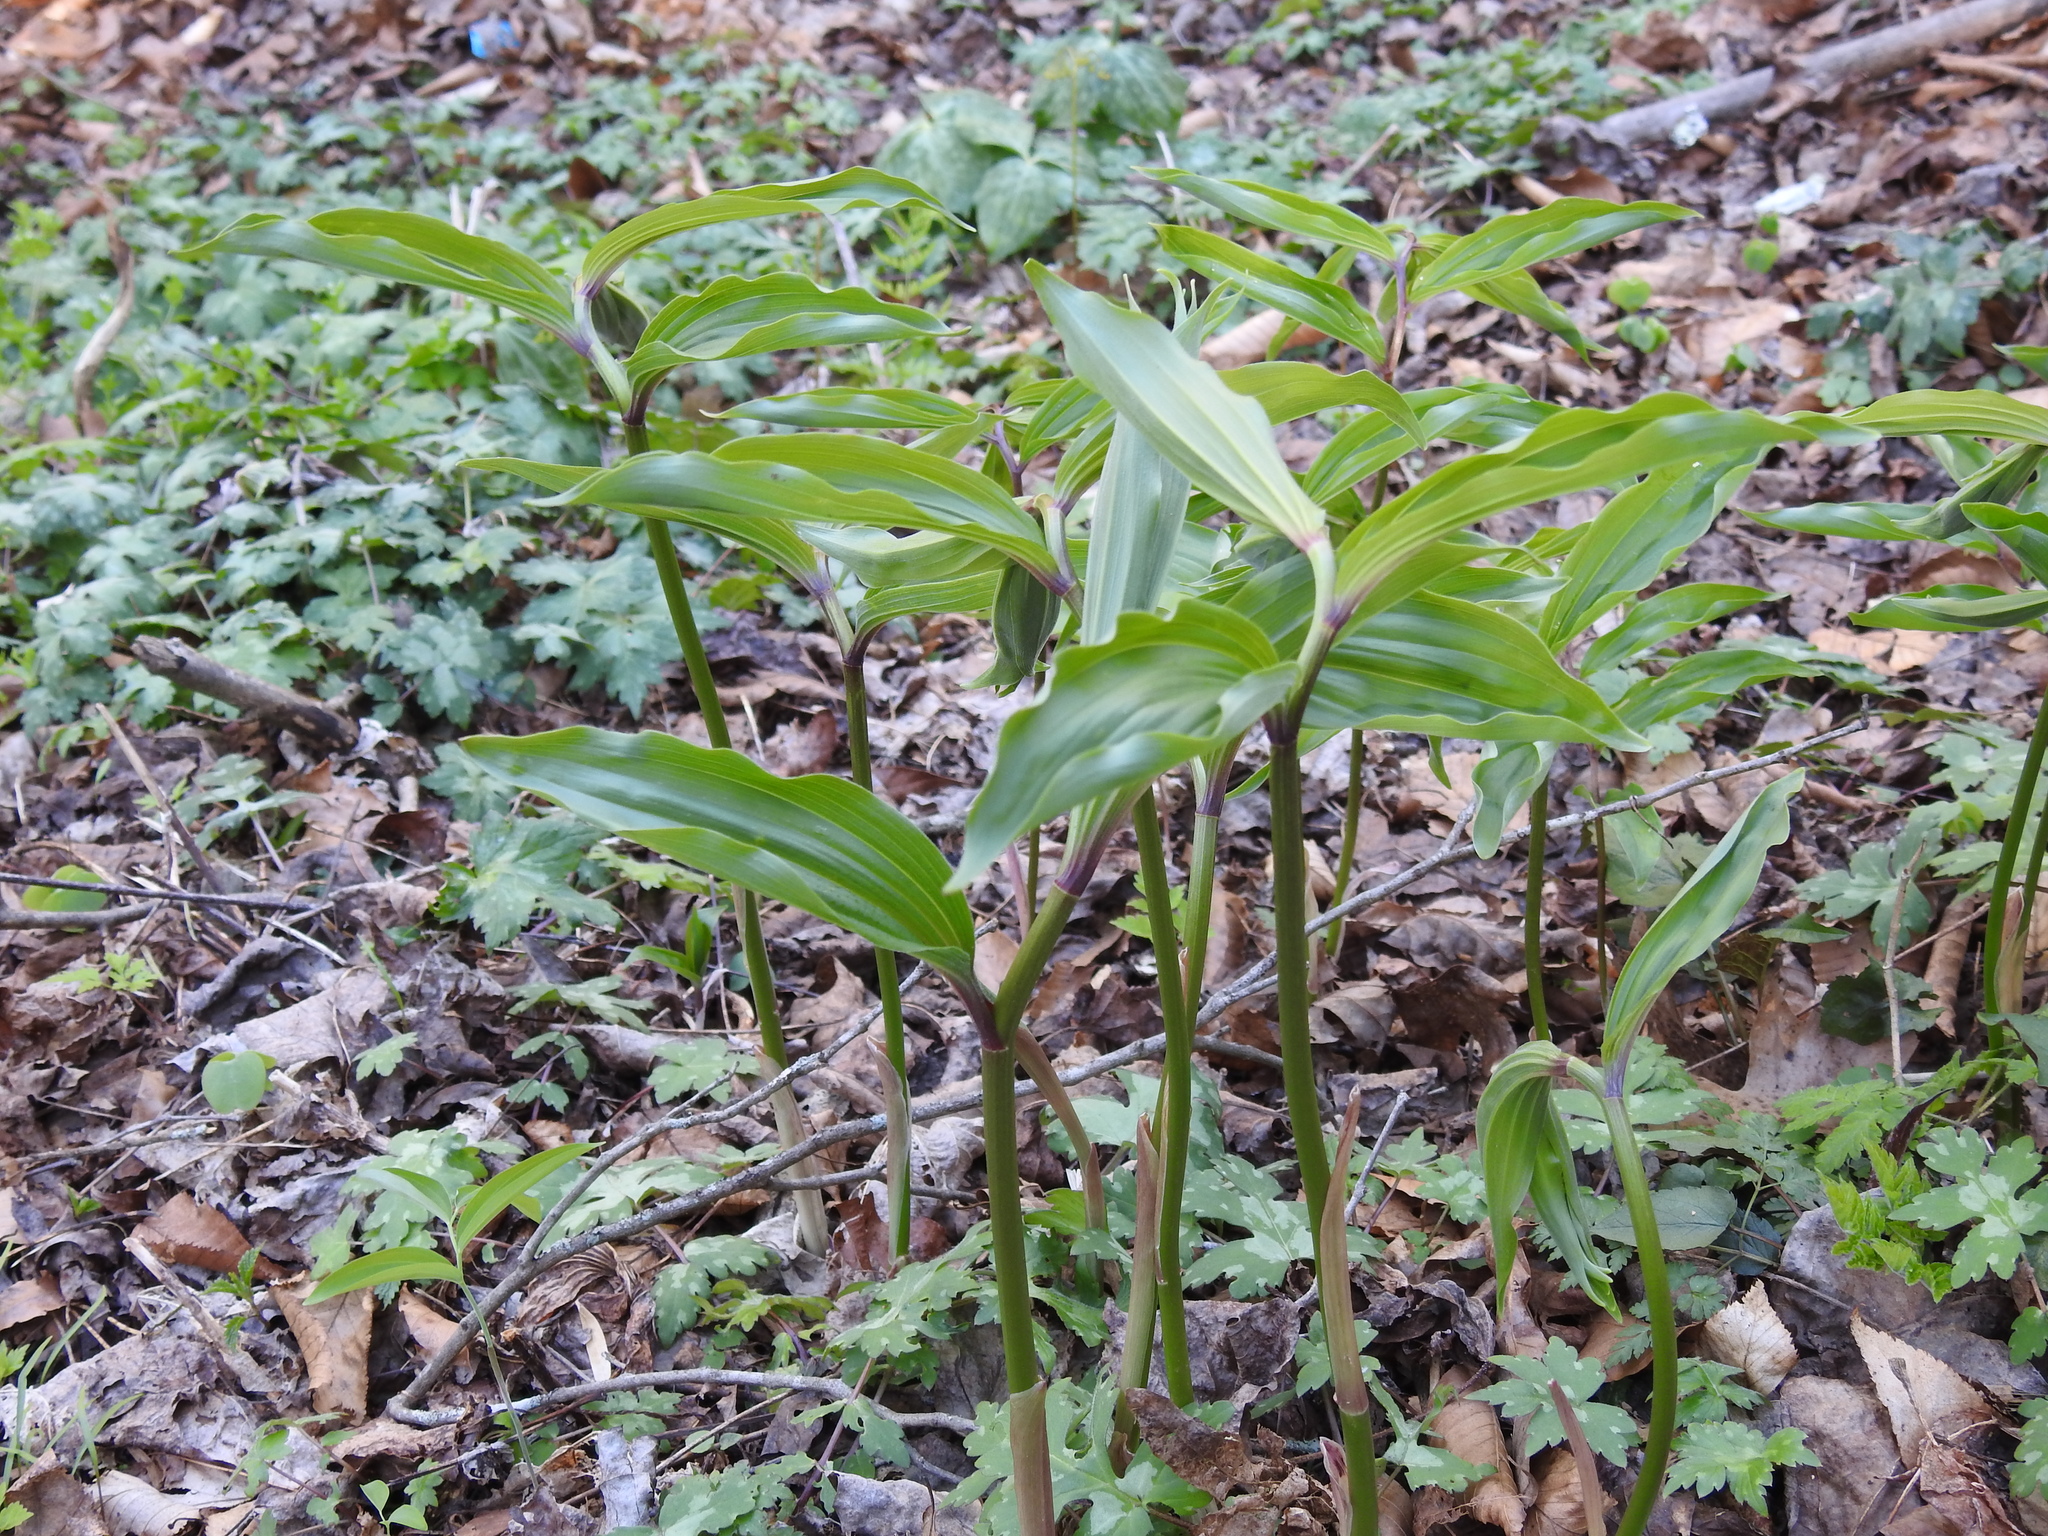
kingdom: Plantae
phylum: Tracheophyta
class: Liliopsida
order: Asparagales
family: Asparagaceae
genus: Maianthemum
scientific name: Maianthemum racemosum
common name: False spikenard
